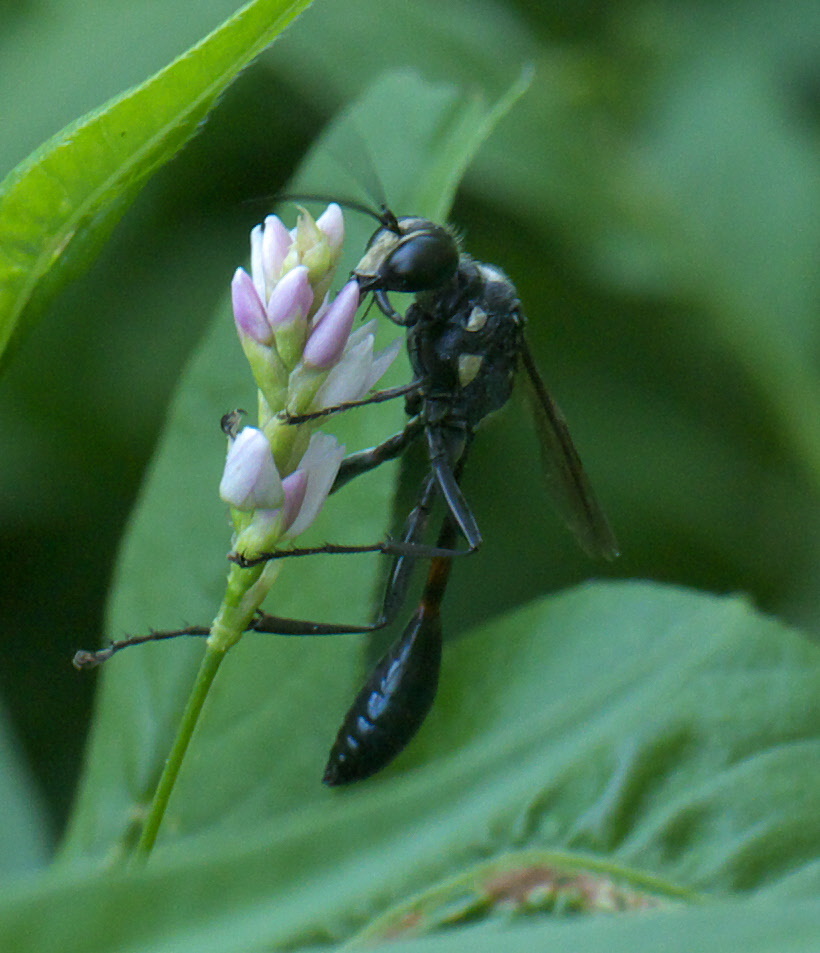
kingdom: Animalia
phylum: Arthropoda
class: Insecta
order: Hymenoptera
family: Sphecidae
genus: Eremnophila
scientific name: Eremnophila aureonotata
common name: Gold-marked thread-waisted wasp
